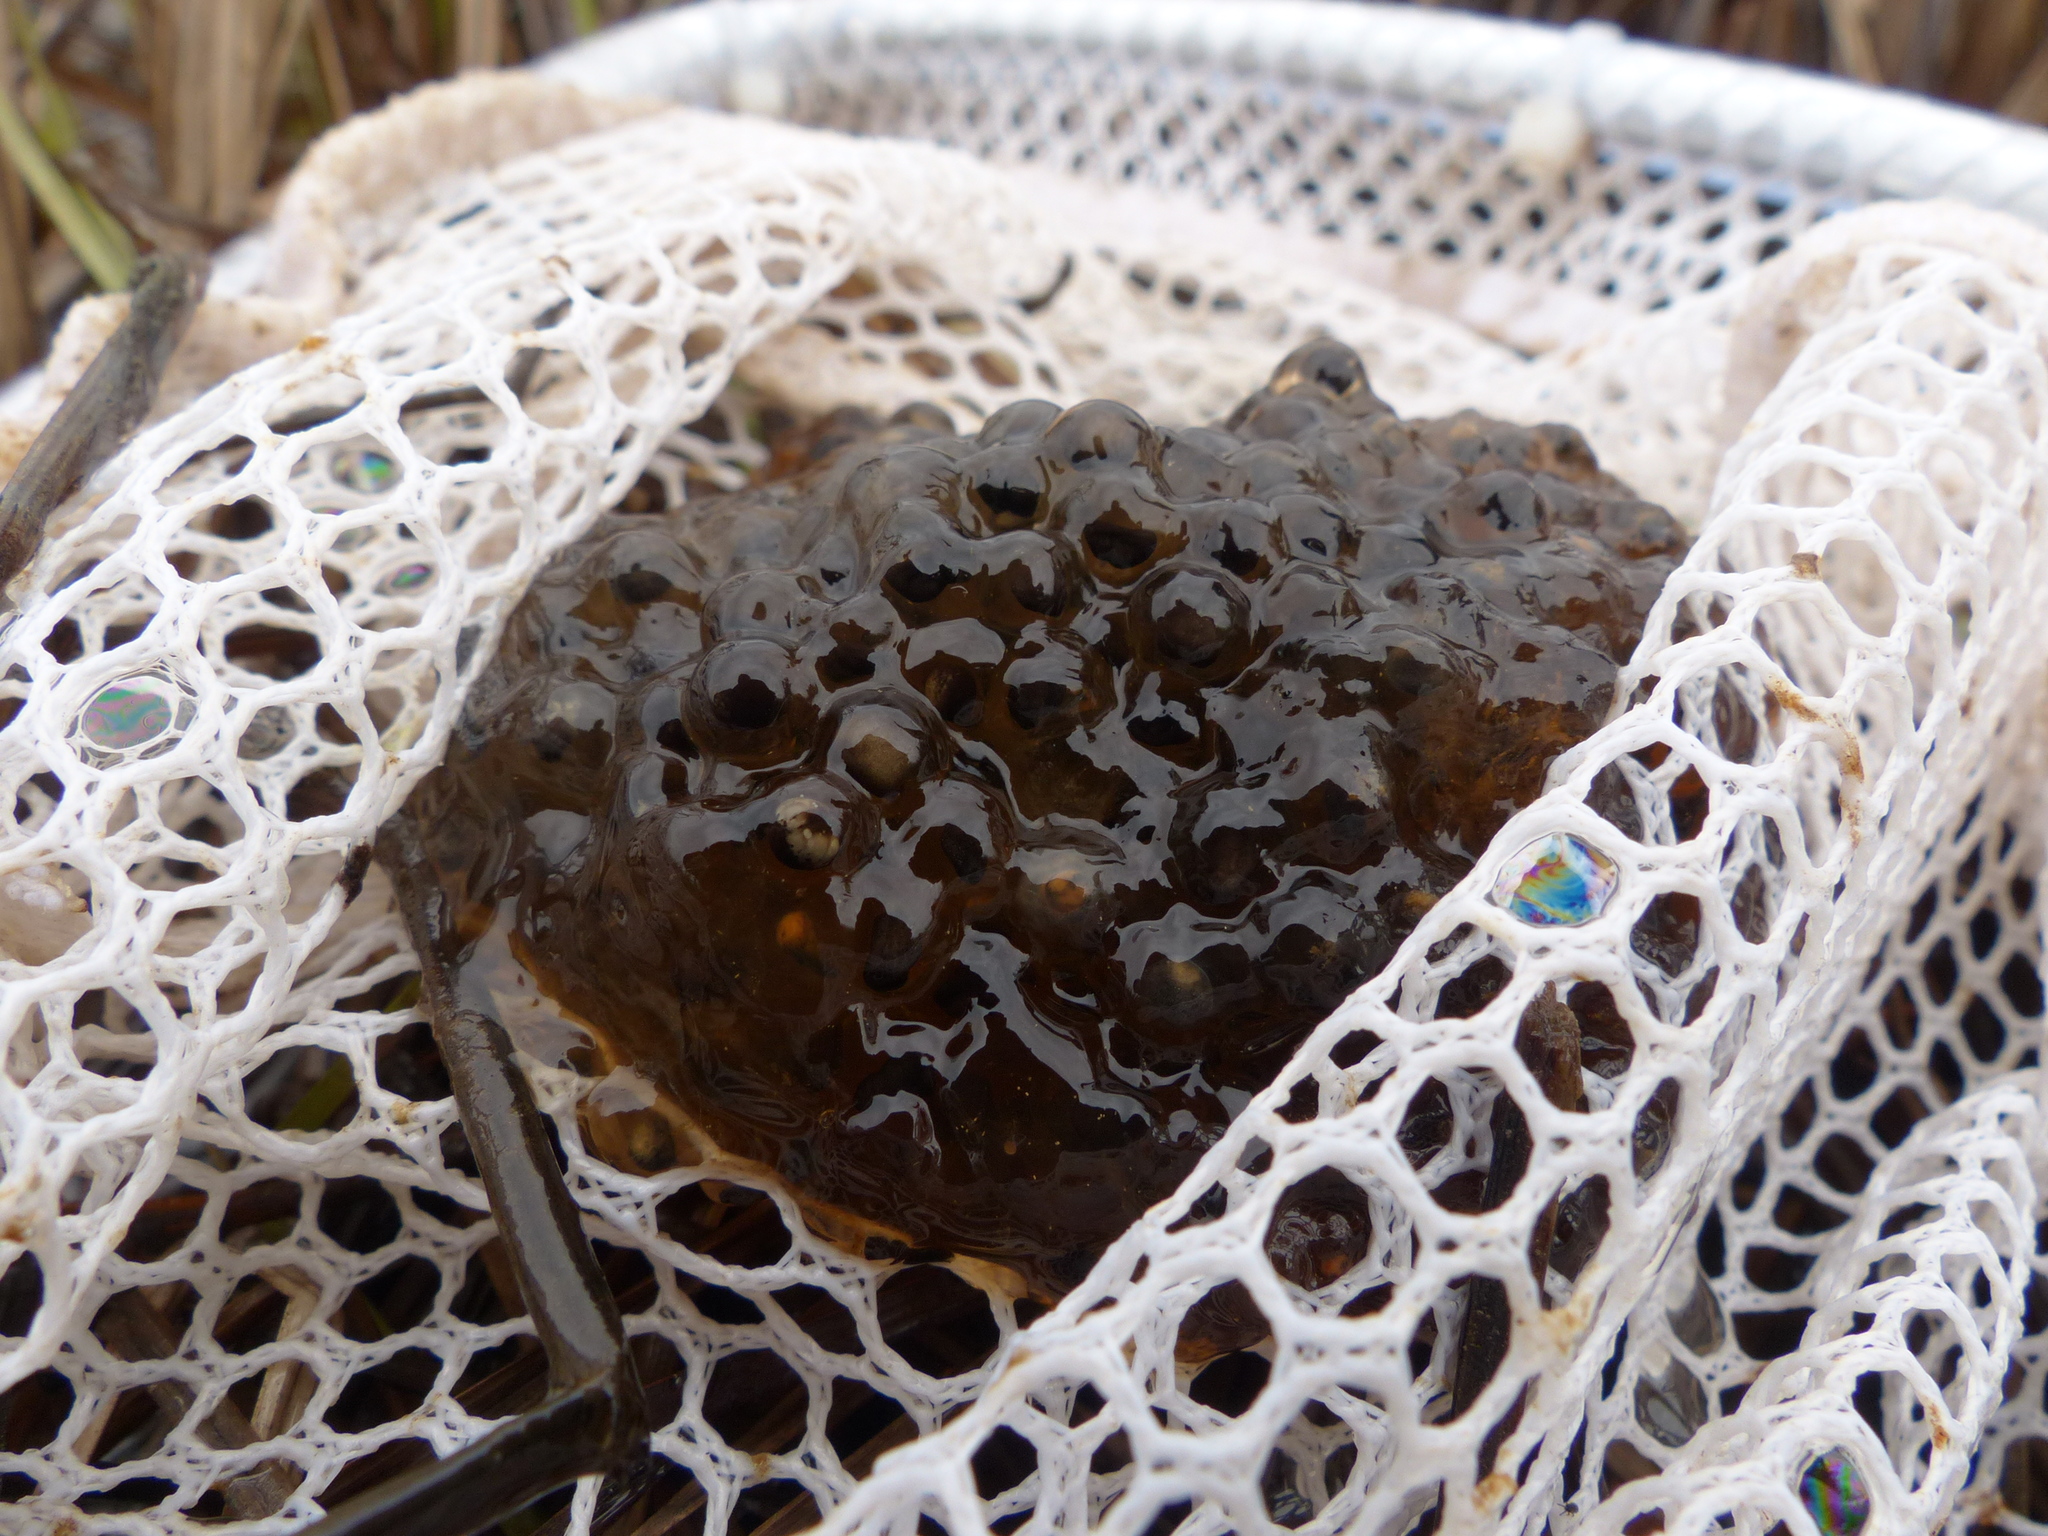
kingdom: Animalia
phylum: Chordata
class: Amphibia
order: Anura
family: Ranidae
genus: Lithobates
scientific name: Lithobates sylvaticus
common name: Wood frog
